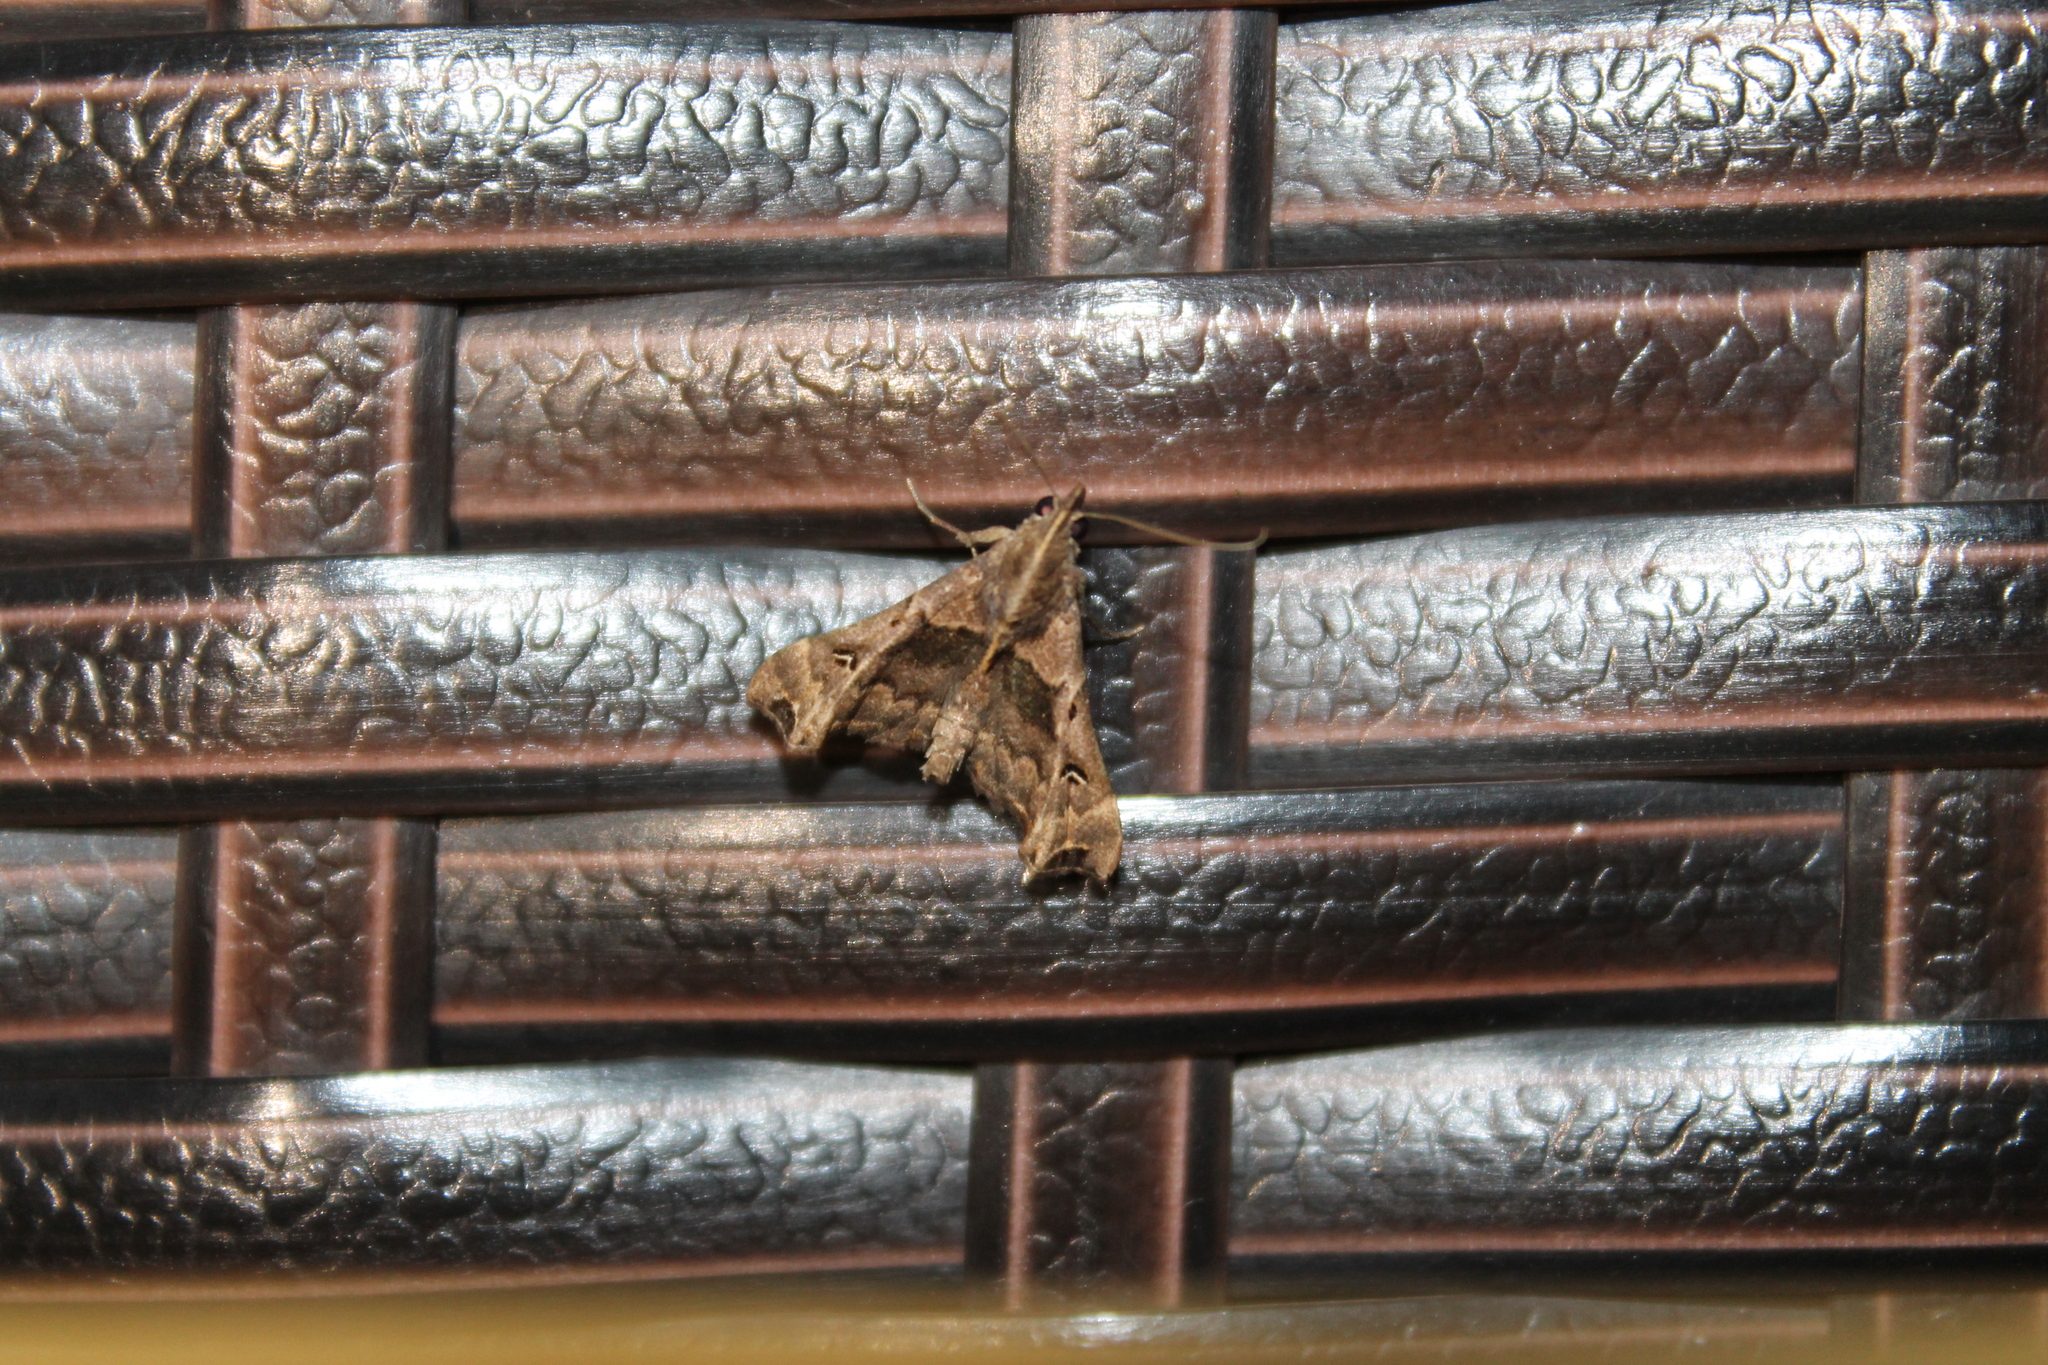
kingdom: Animalia
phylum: Arthropoda
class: Insecta
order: Lepidoptera
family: Erebidae
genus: Palthis
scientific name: Palthis asopialis
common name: Faint-spotted palthis moth
